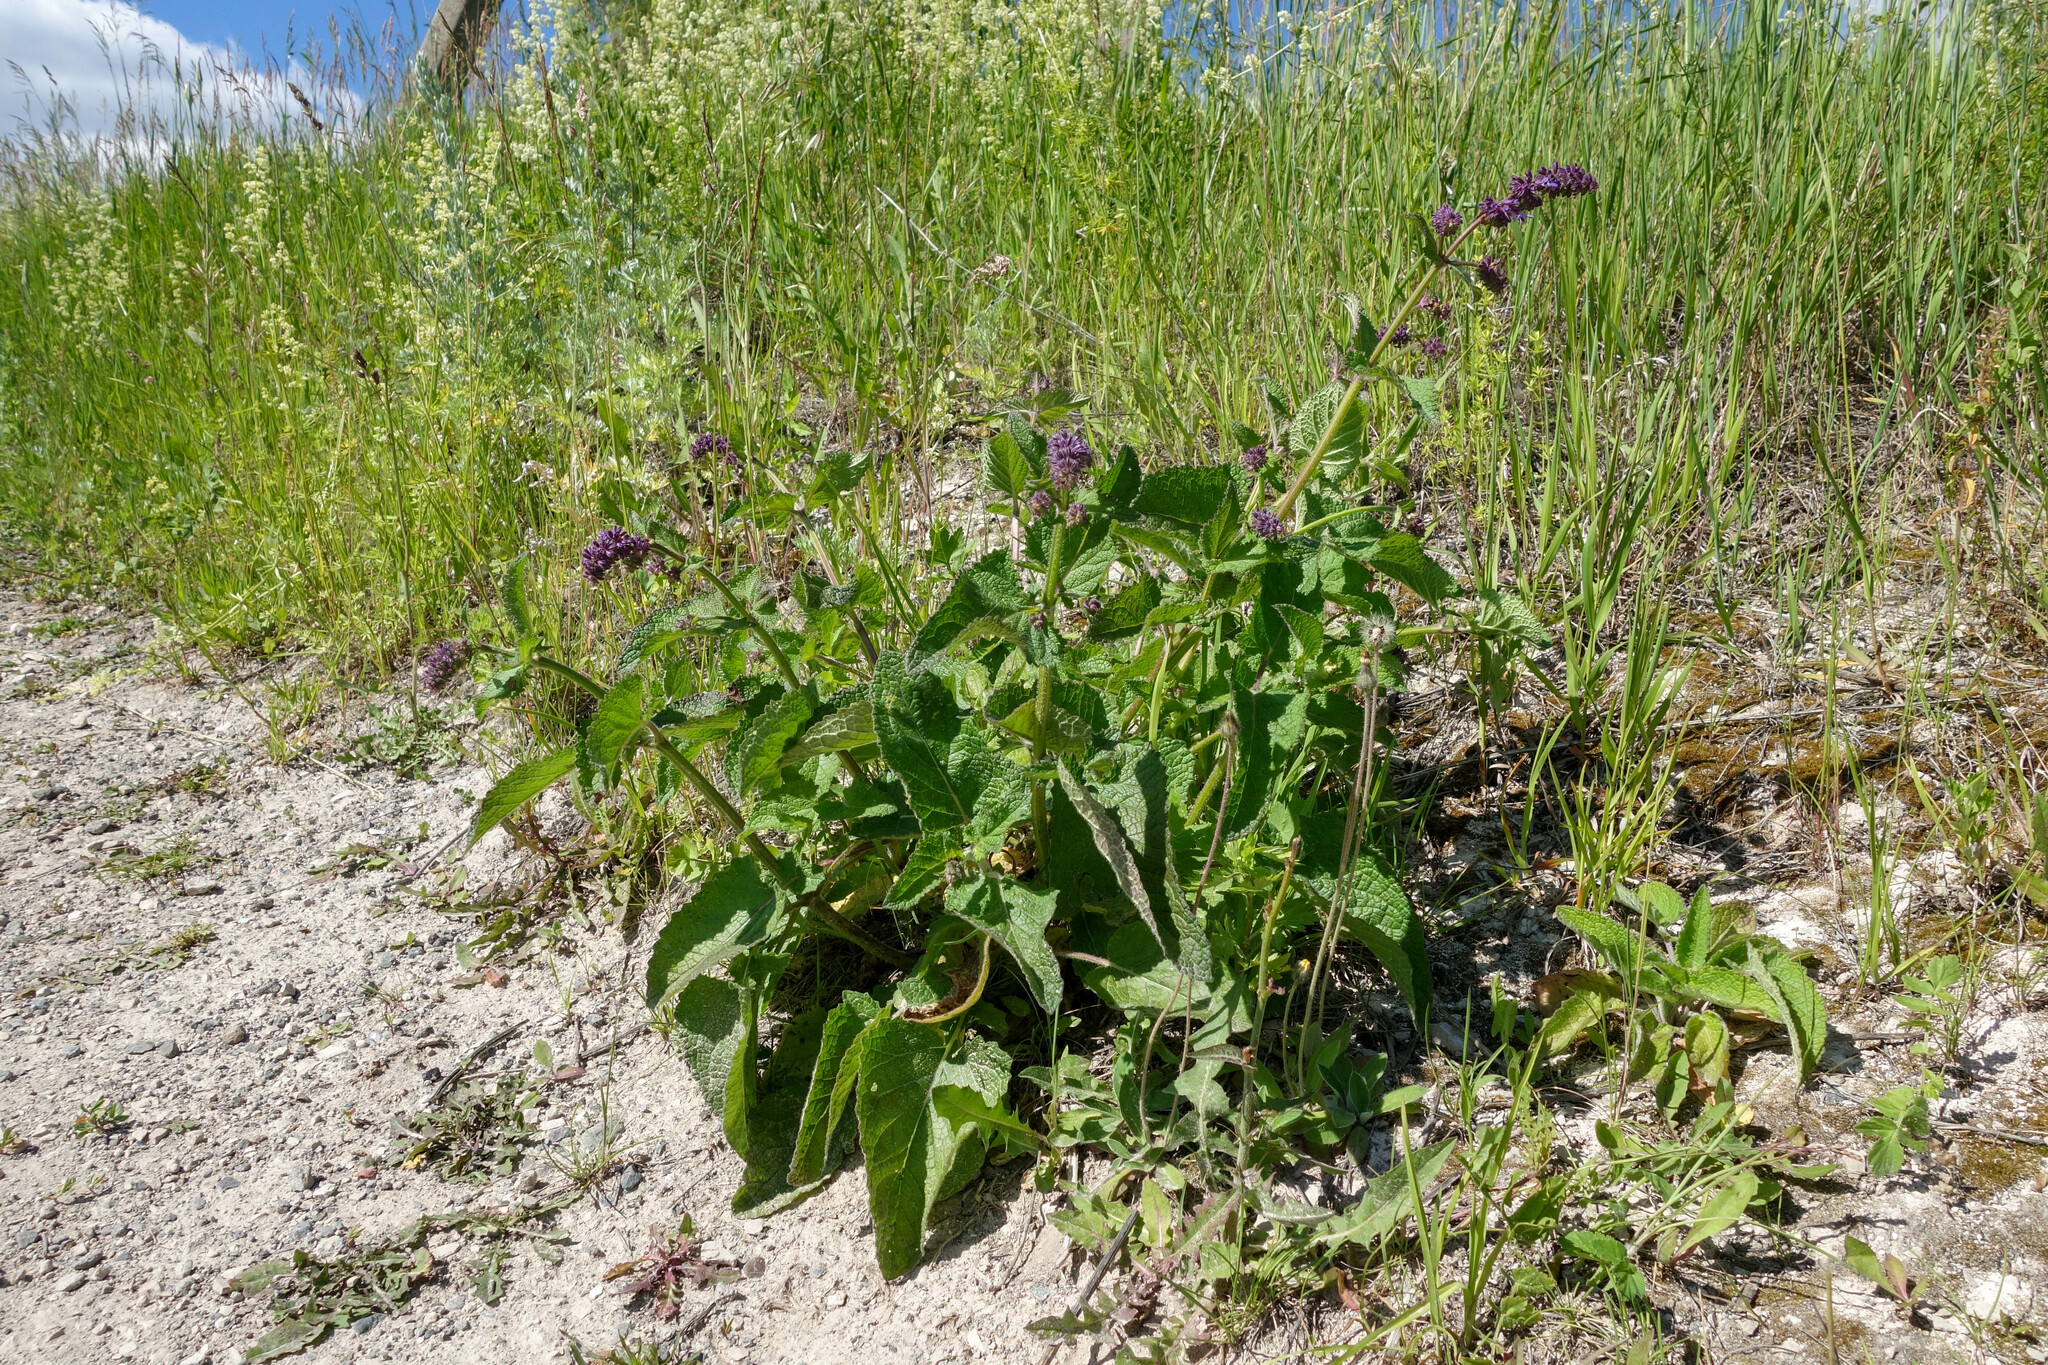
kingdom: Plantae
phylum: Tracheophyta
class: Magnoliopsida
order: Lamiales
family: Lamiaceae
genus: Salvia
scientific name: Salvia verticillata
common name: Whorled clary
